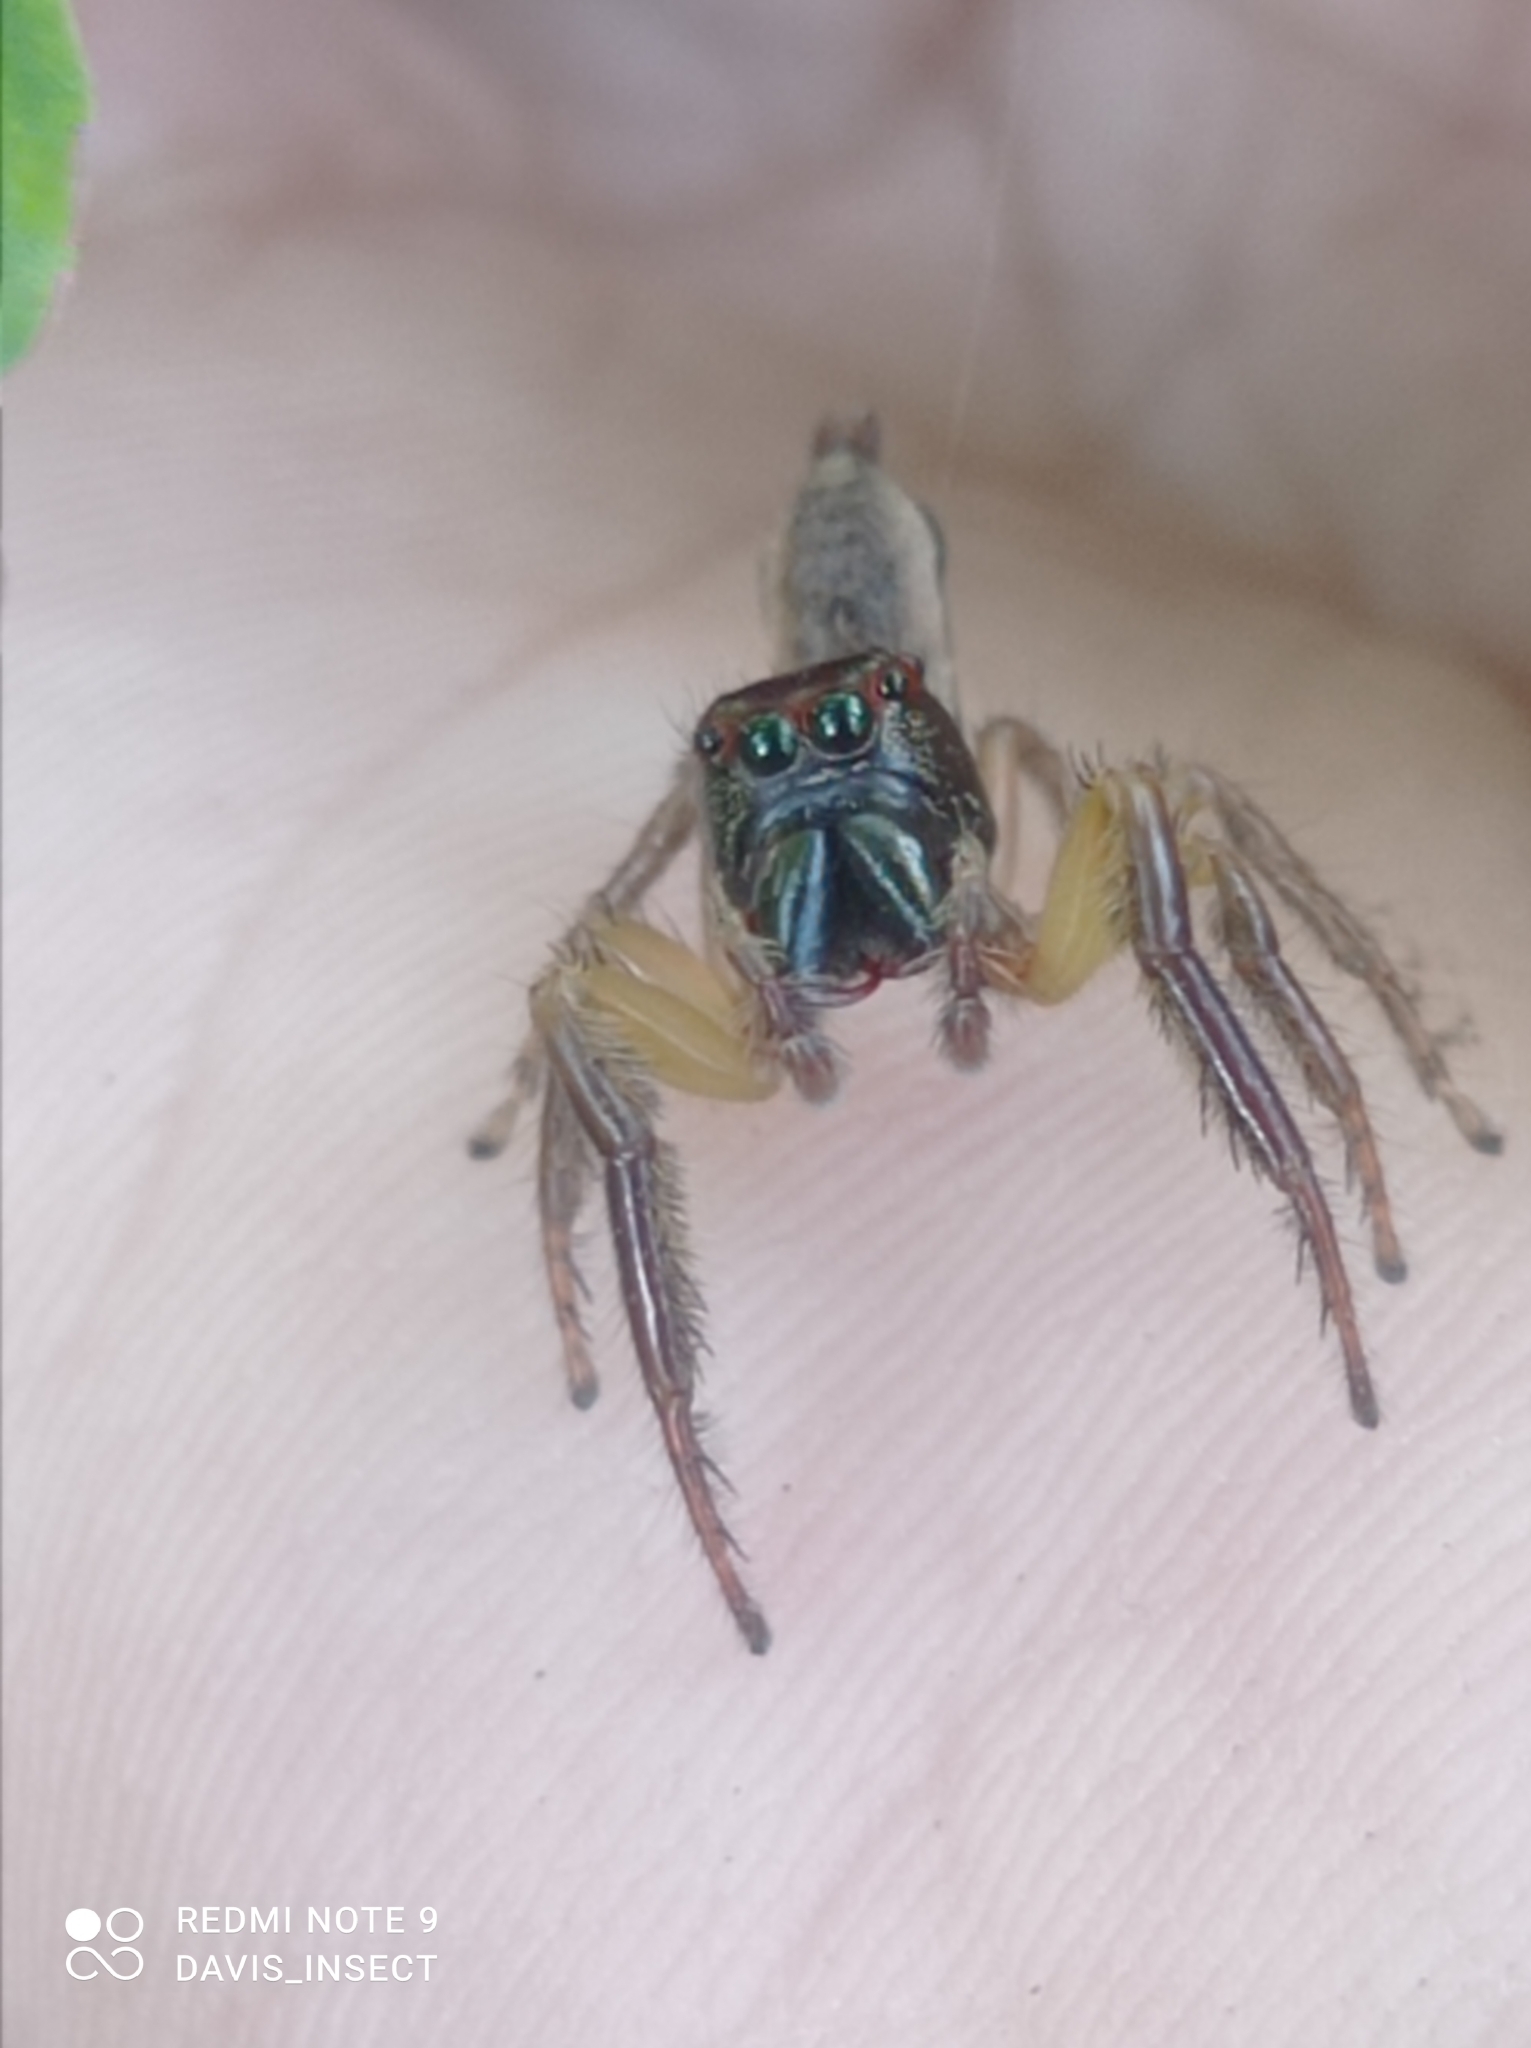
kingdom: Animalia
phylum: Arthropoda
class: Arachnida
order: Araneae
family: Salticidae
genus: Artabrus
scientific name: Artabrus aurantipilosus
